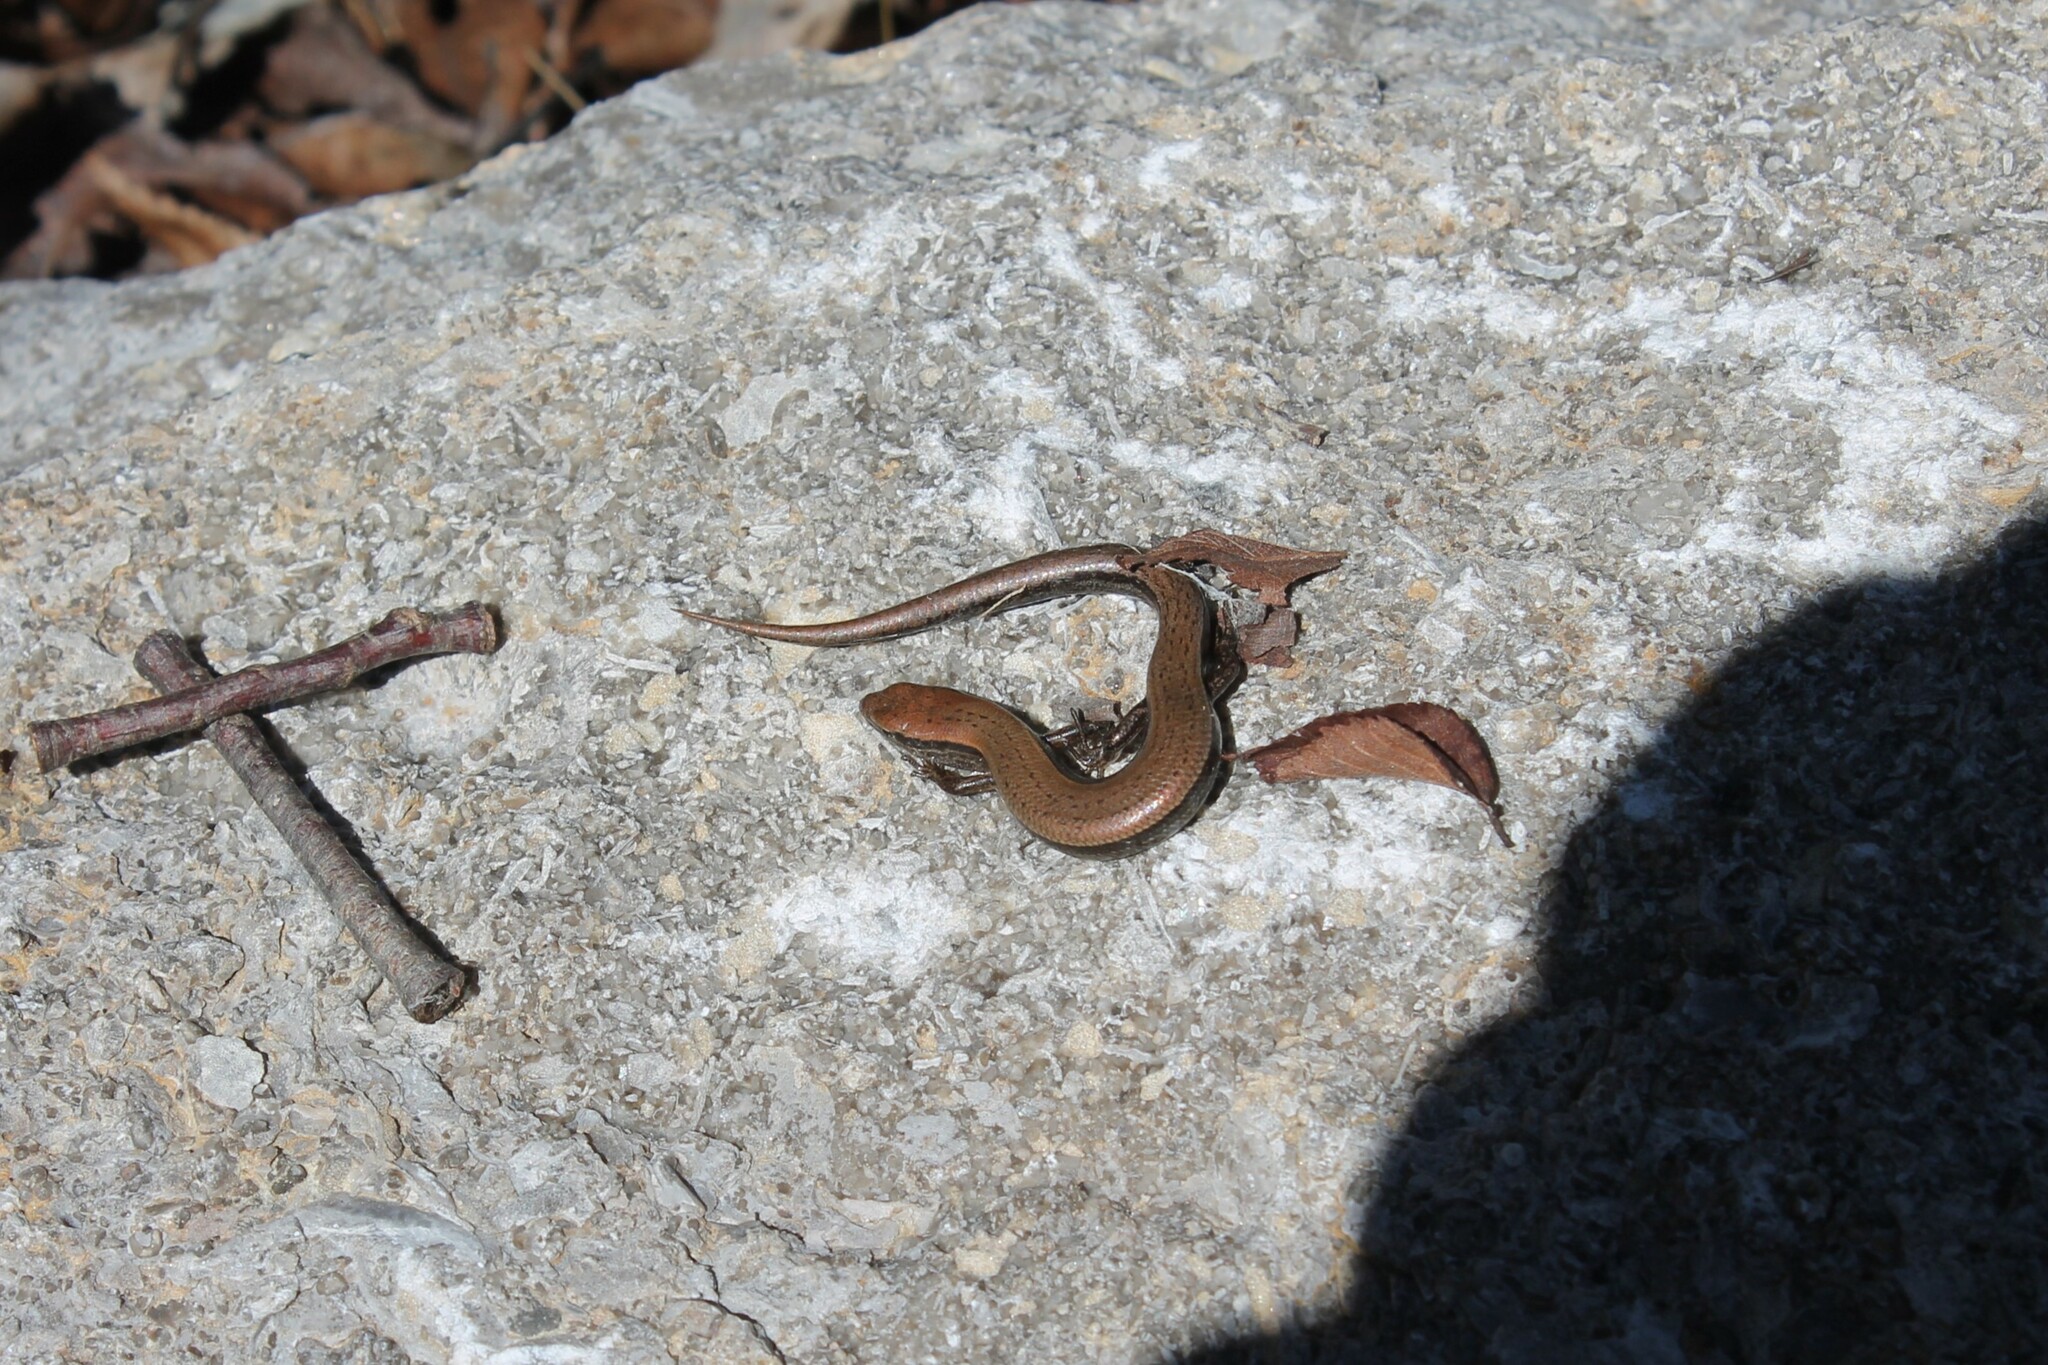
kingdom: Animalia
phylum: Chordata
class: Squamata
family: Scincidae
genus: Scincella
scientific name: Scincella lateralis
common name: Ground skink
